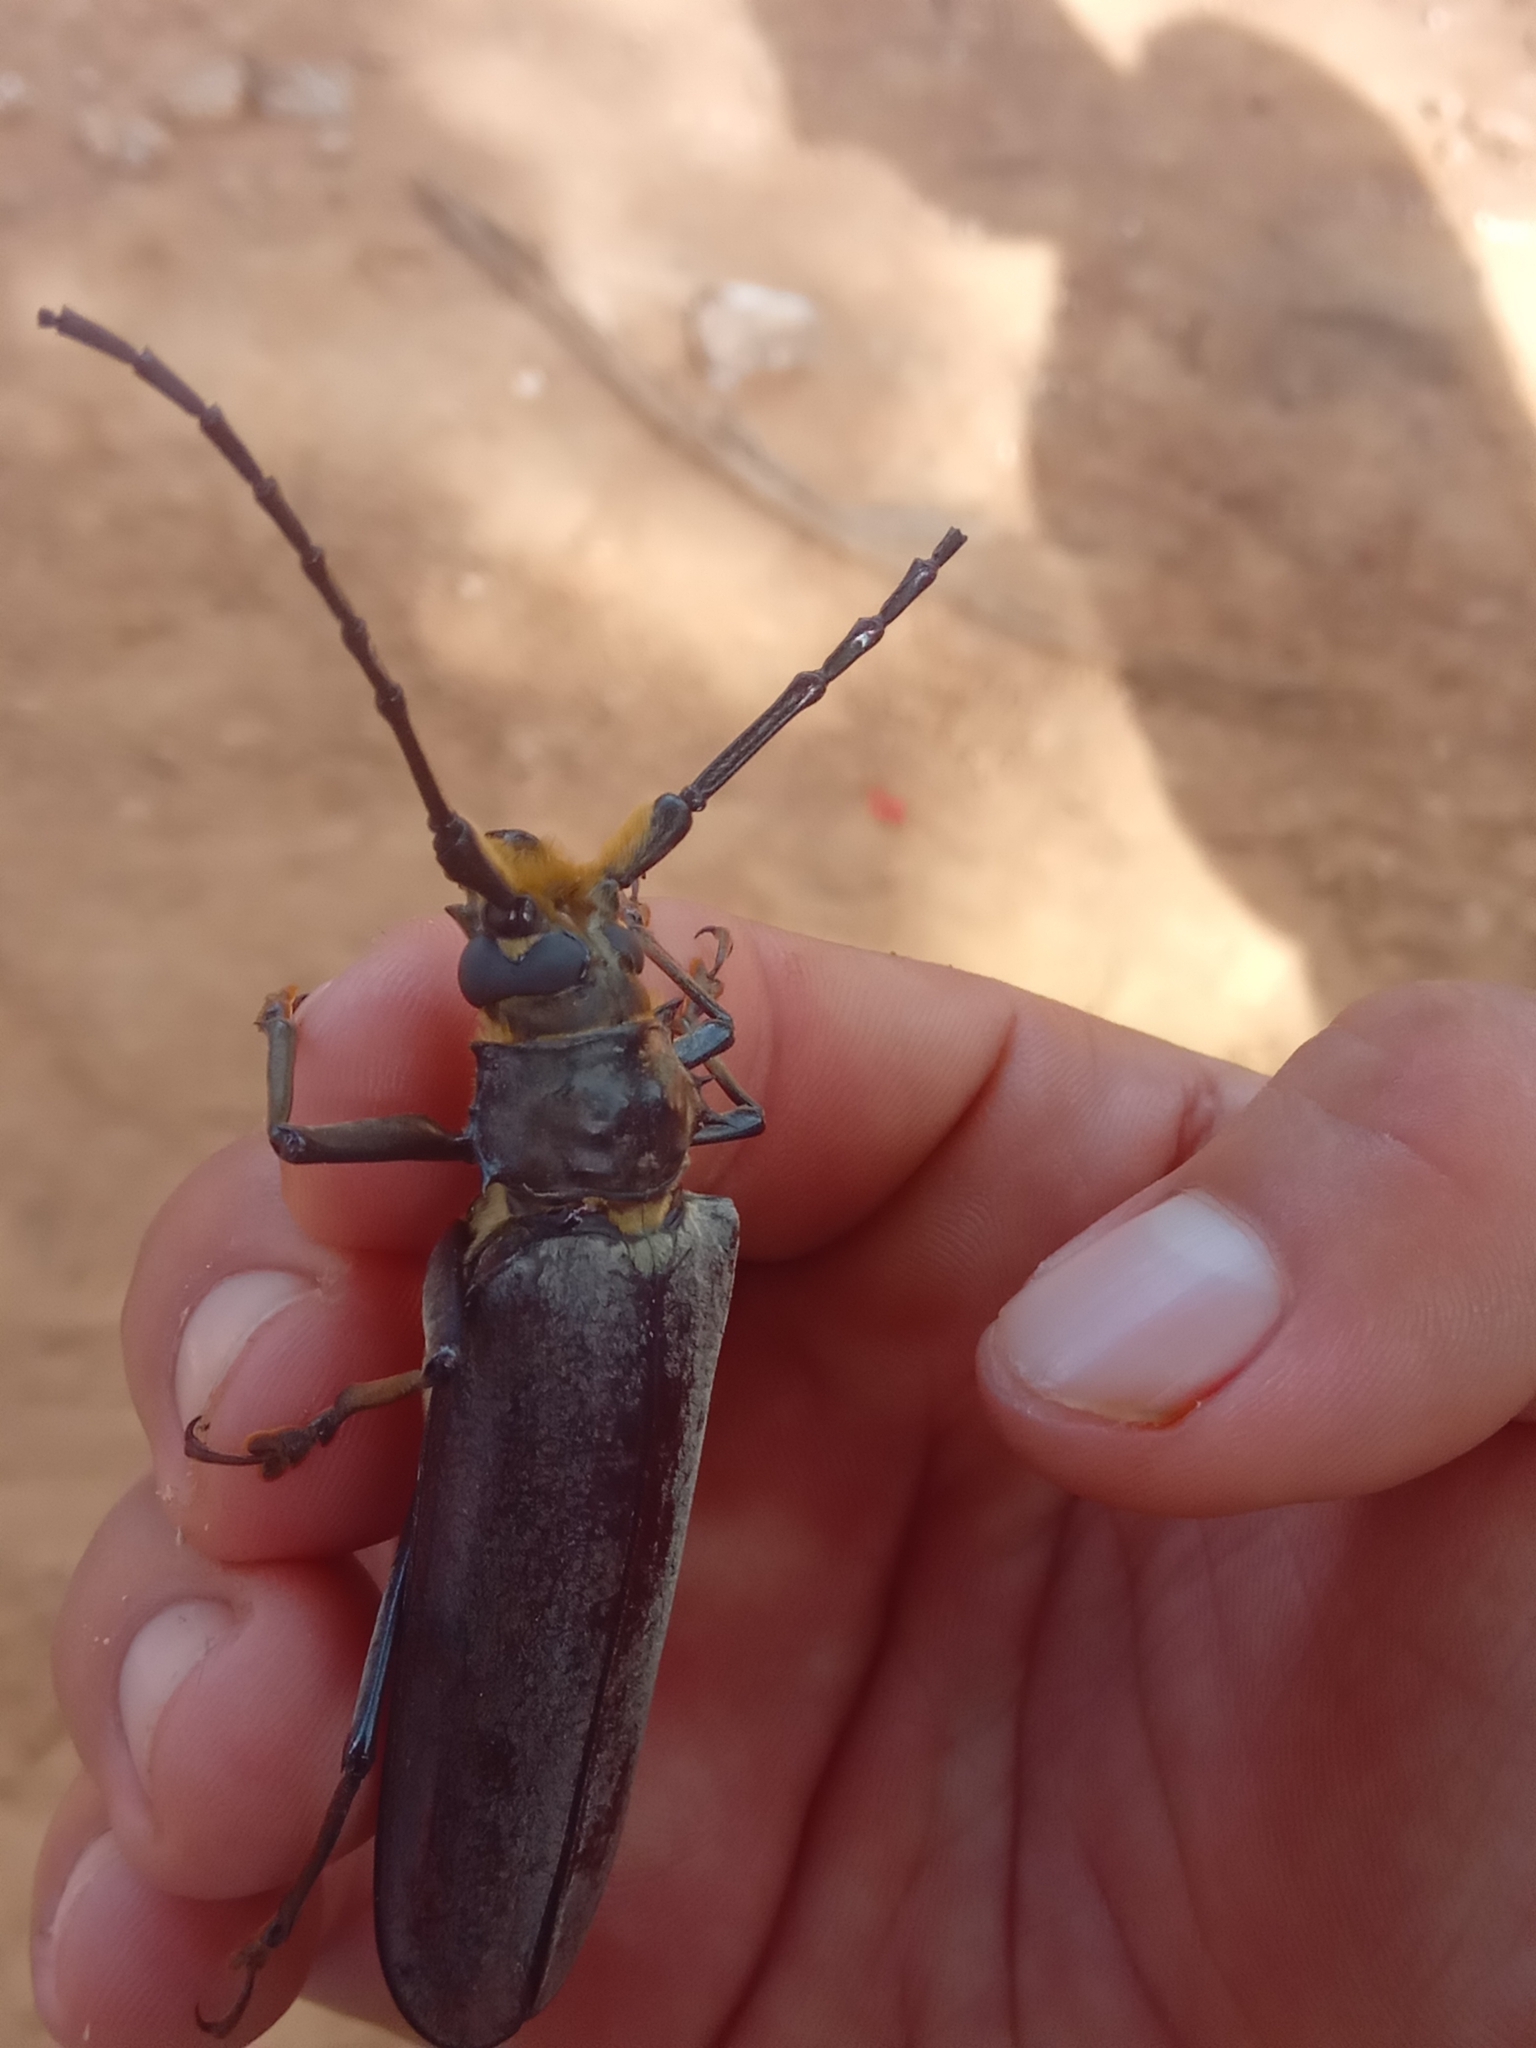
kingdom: Animalia
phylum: Arthropoda
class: Insecta
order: Coleoptera
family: Cerambycidae
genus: Orthomegas
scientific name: Orthomegas monnei
